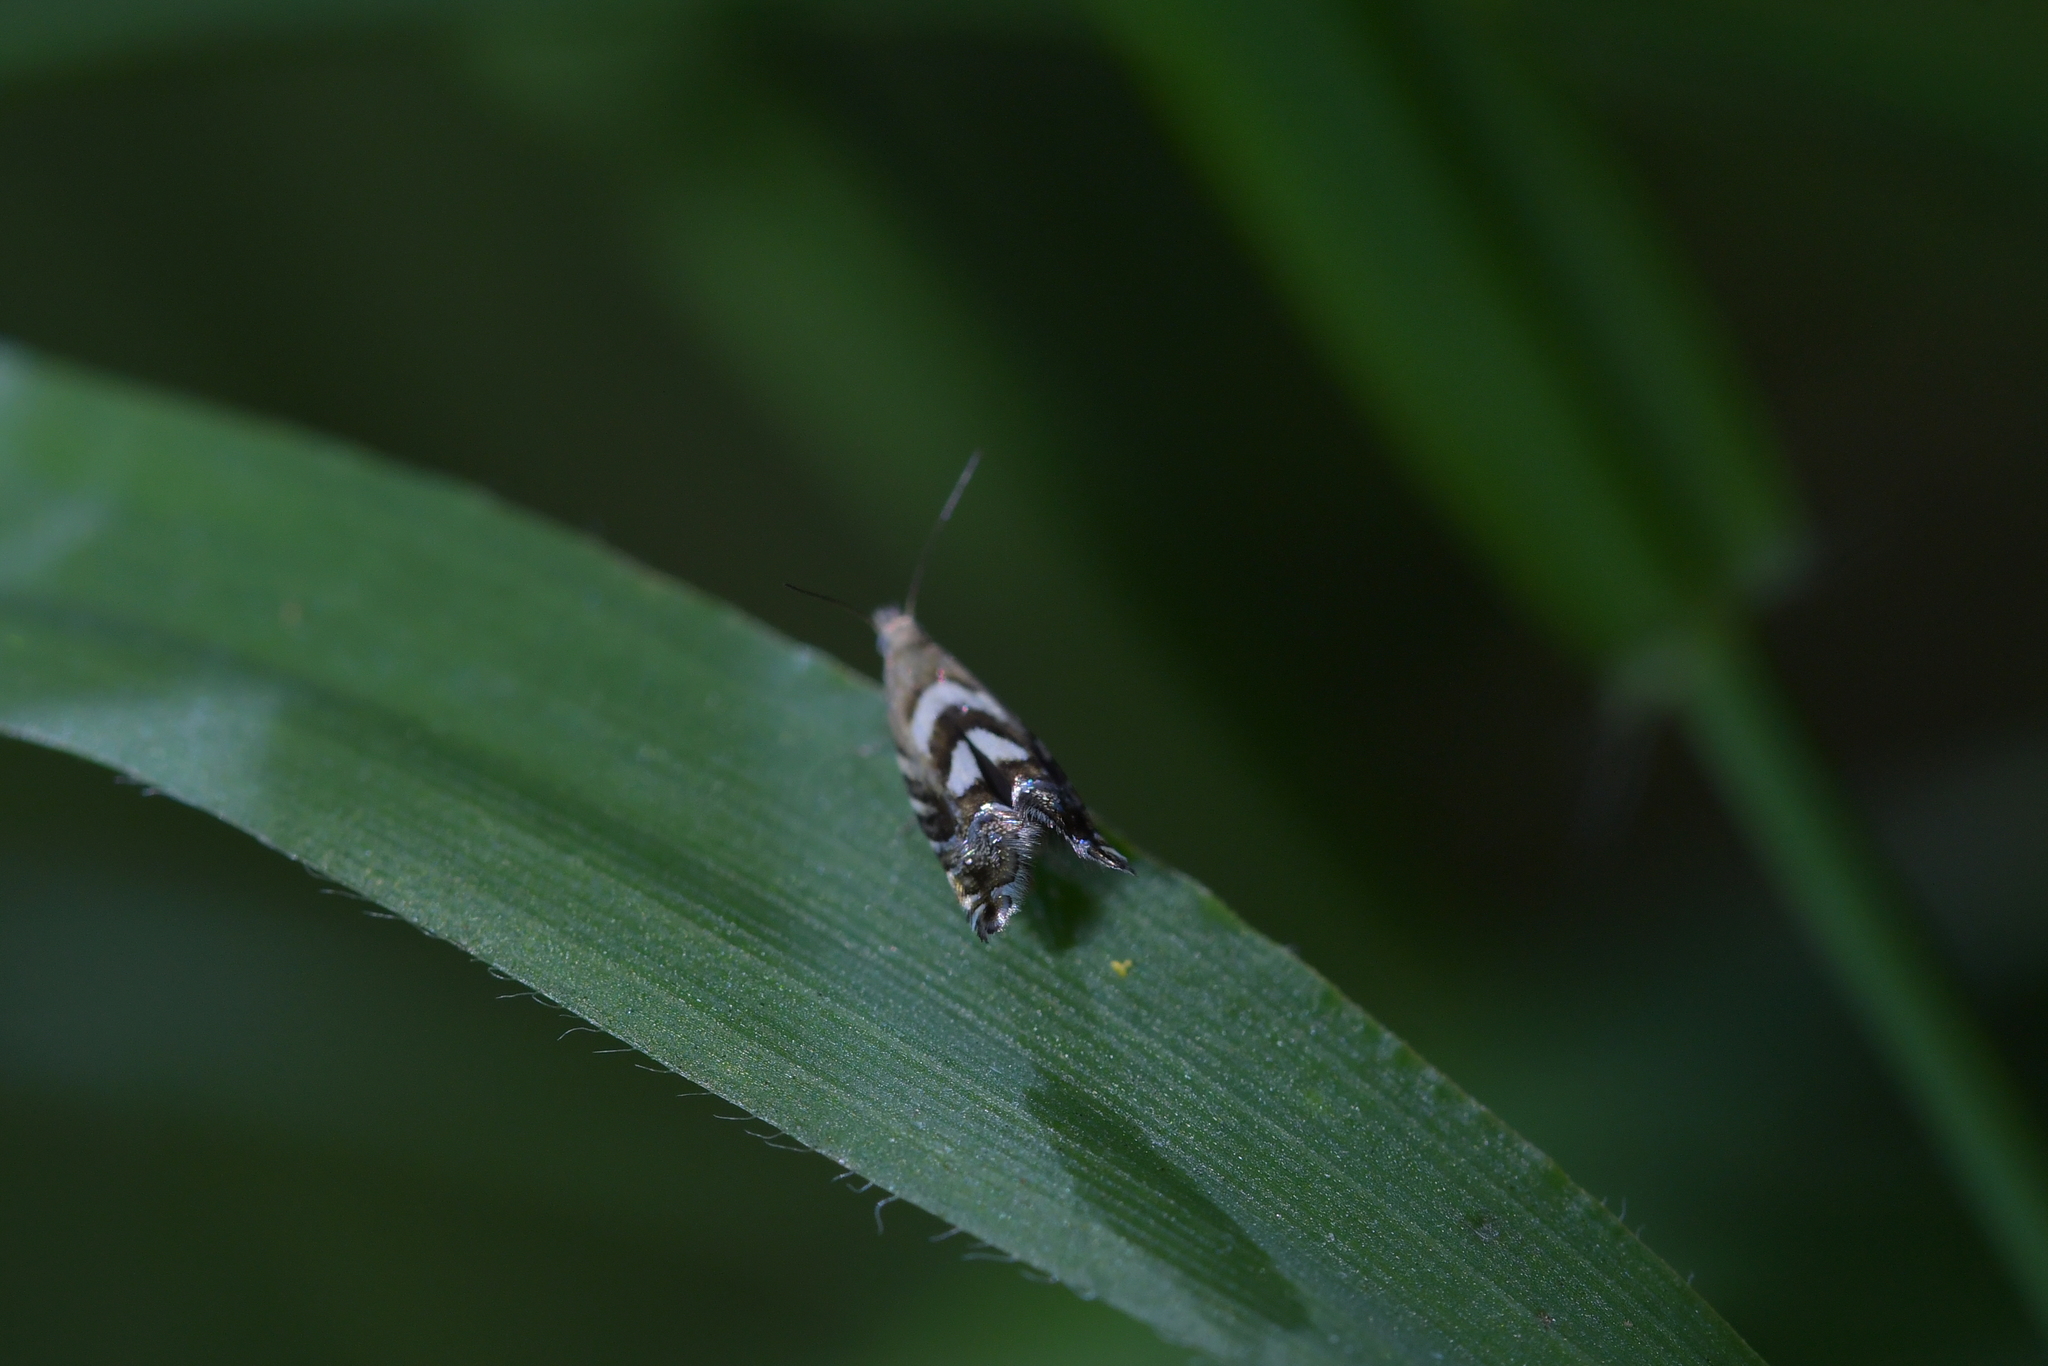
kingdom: Animalia
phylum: Arthropoda
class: Insecta
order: Lepidoptera
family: Glyphipterigidae
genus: Glyphipterix
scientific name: Glyphipterix asteronota
